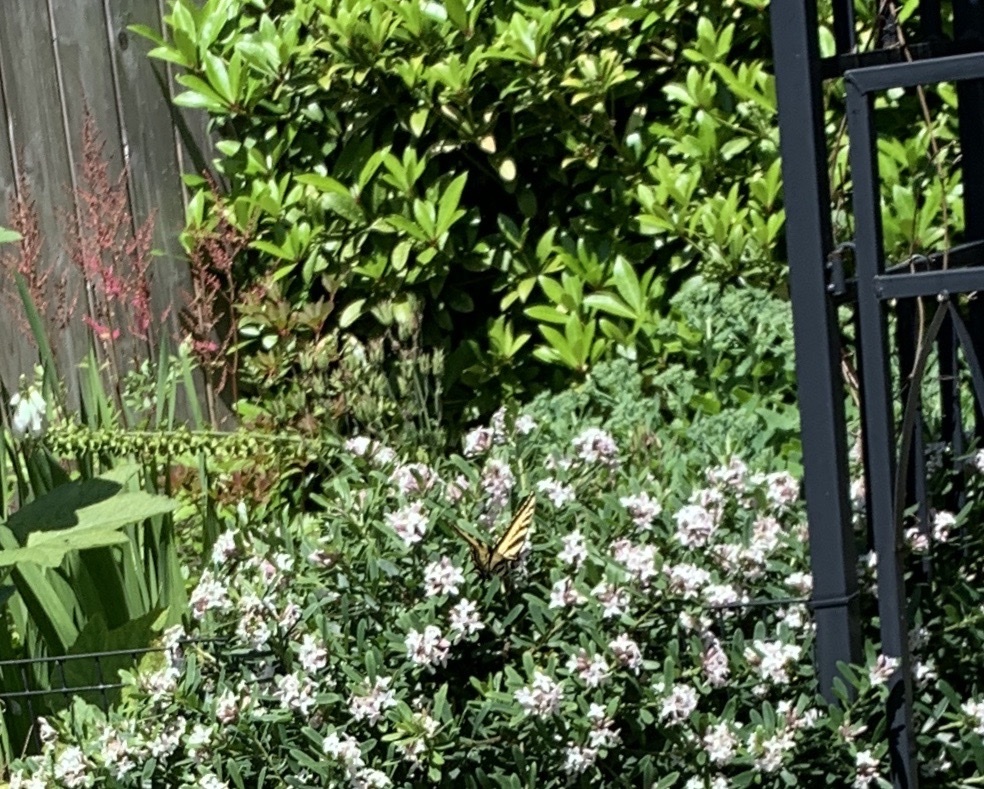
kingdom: Animalia
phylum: Arthropoda
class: Insecta
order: Lepidoptera
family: Papilionidae
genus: Papilio
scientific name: Papilio rutulus
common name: Western tiger swallowtail
